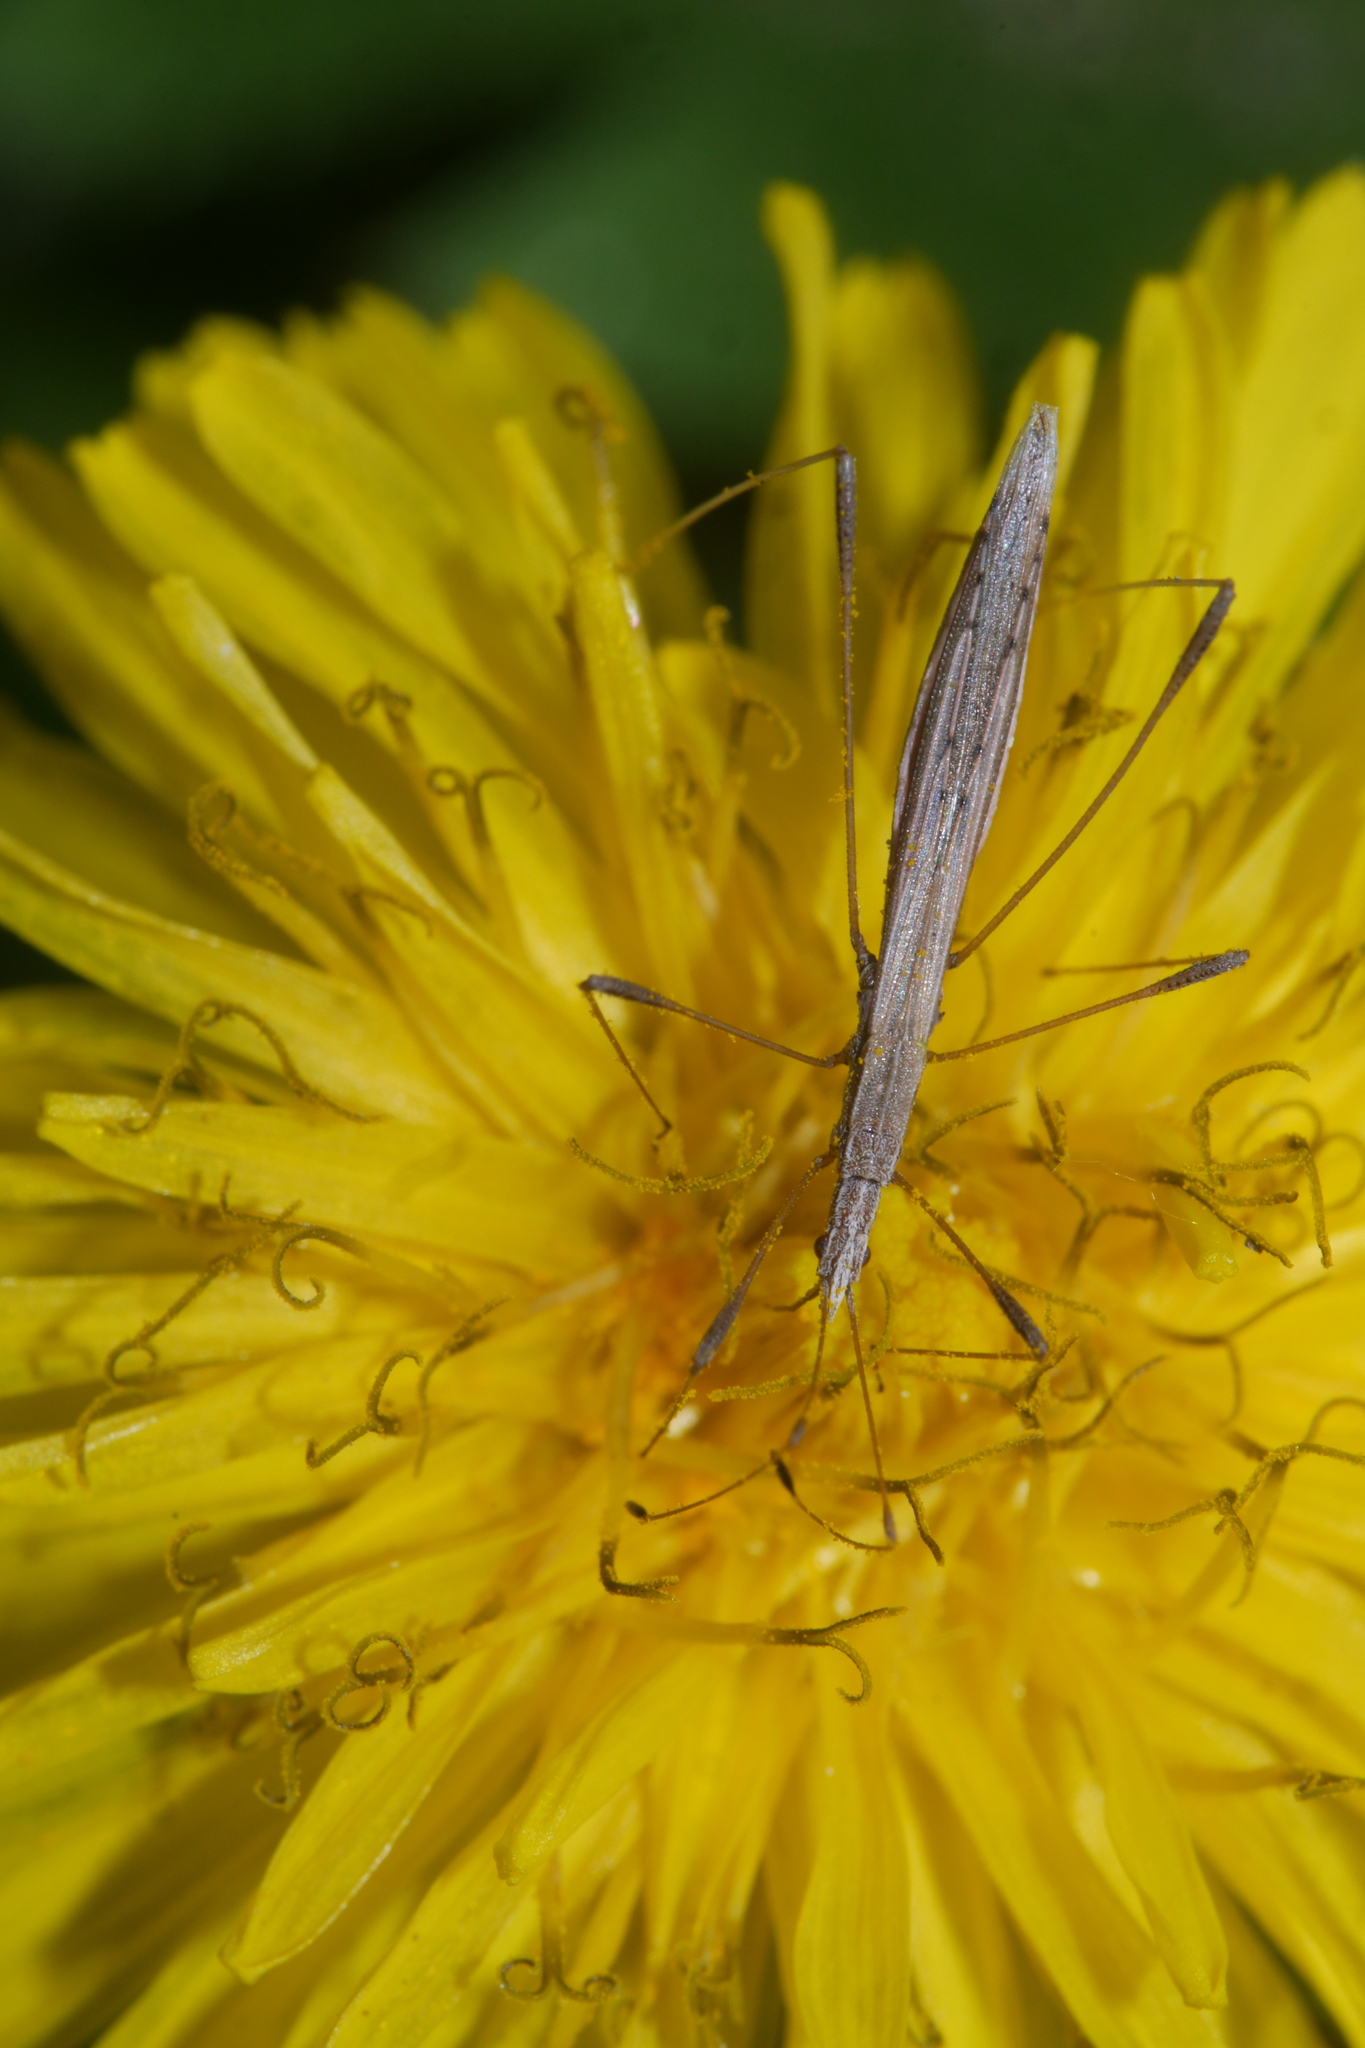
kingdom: Animalia
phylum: Arthropoda
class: Insecta
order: Hemiptera
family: Berytidae
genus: Neides
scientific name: Neides tipularius
